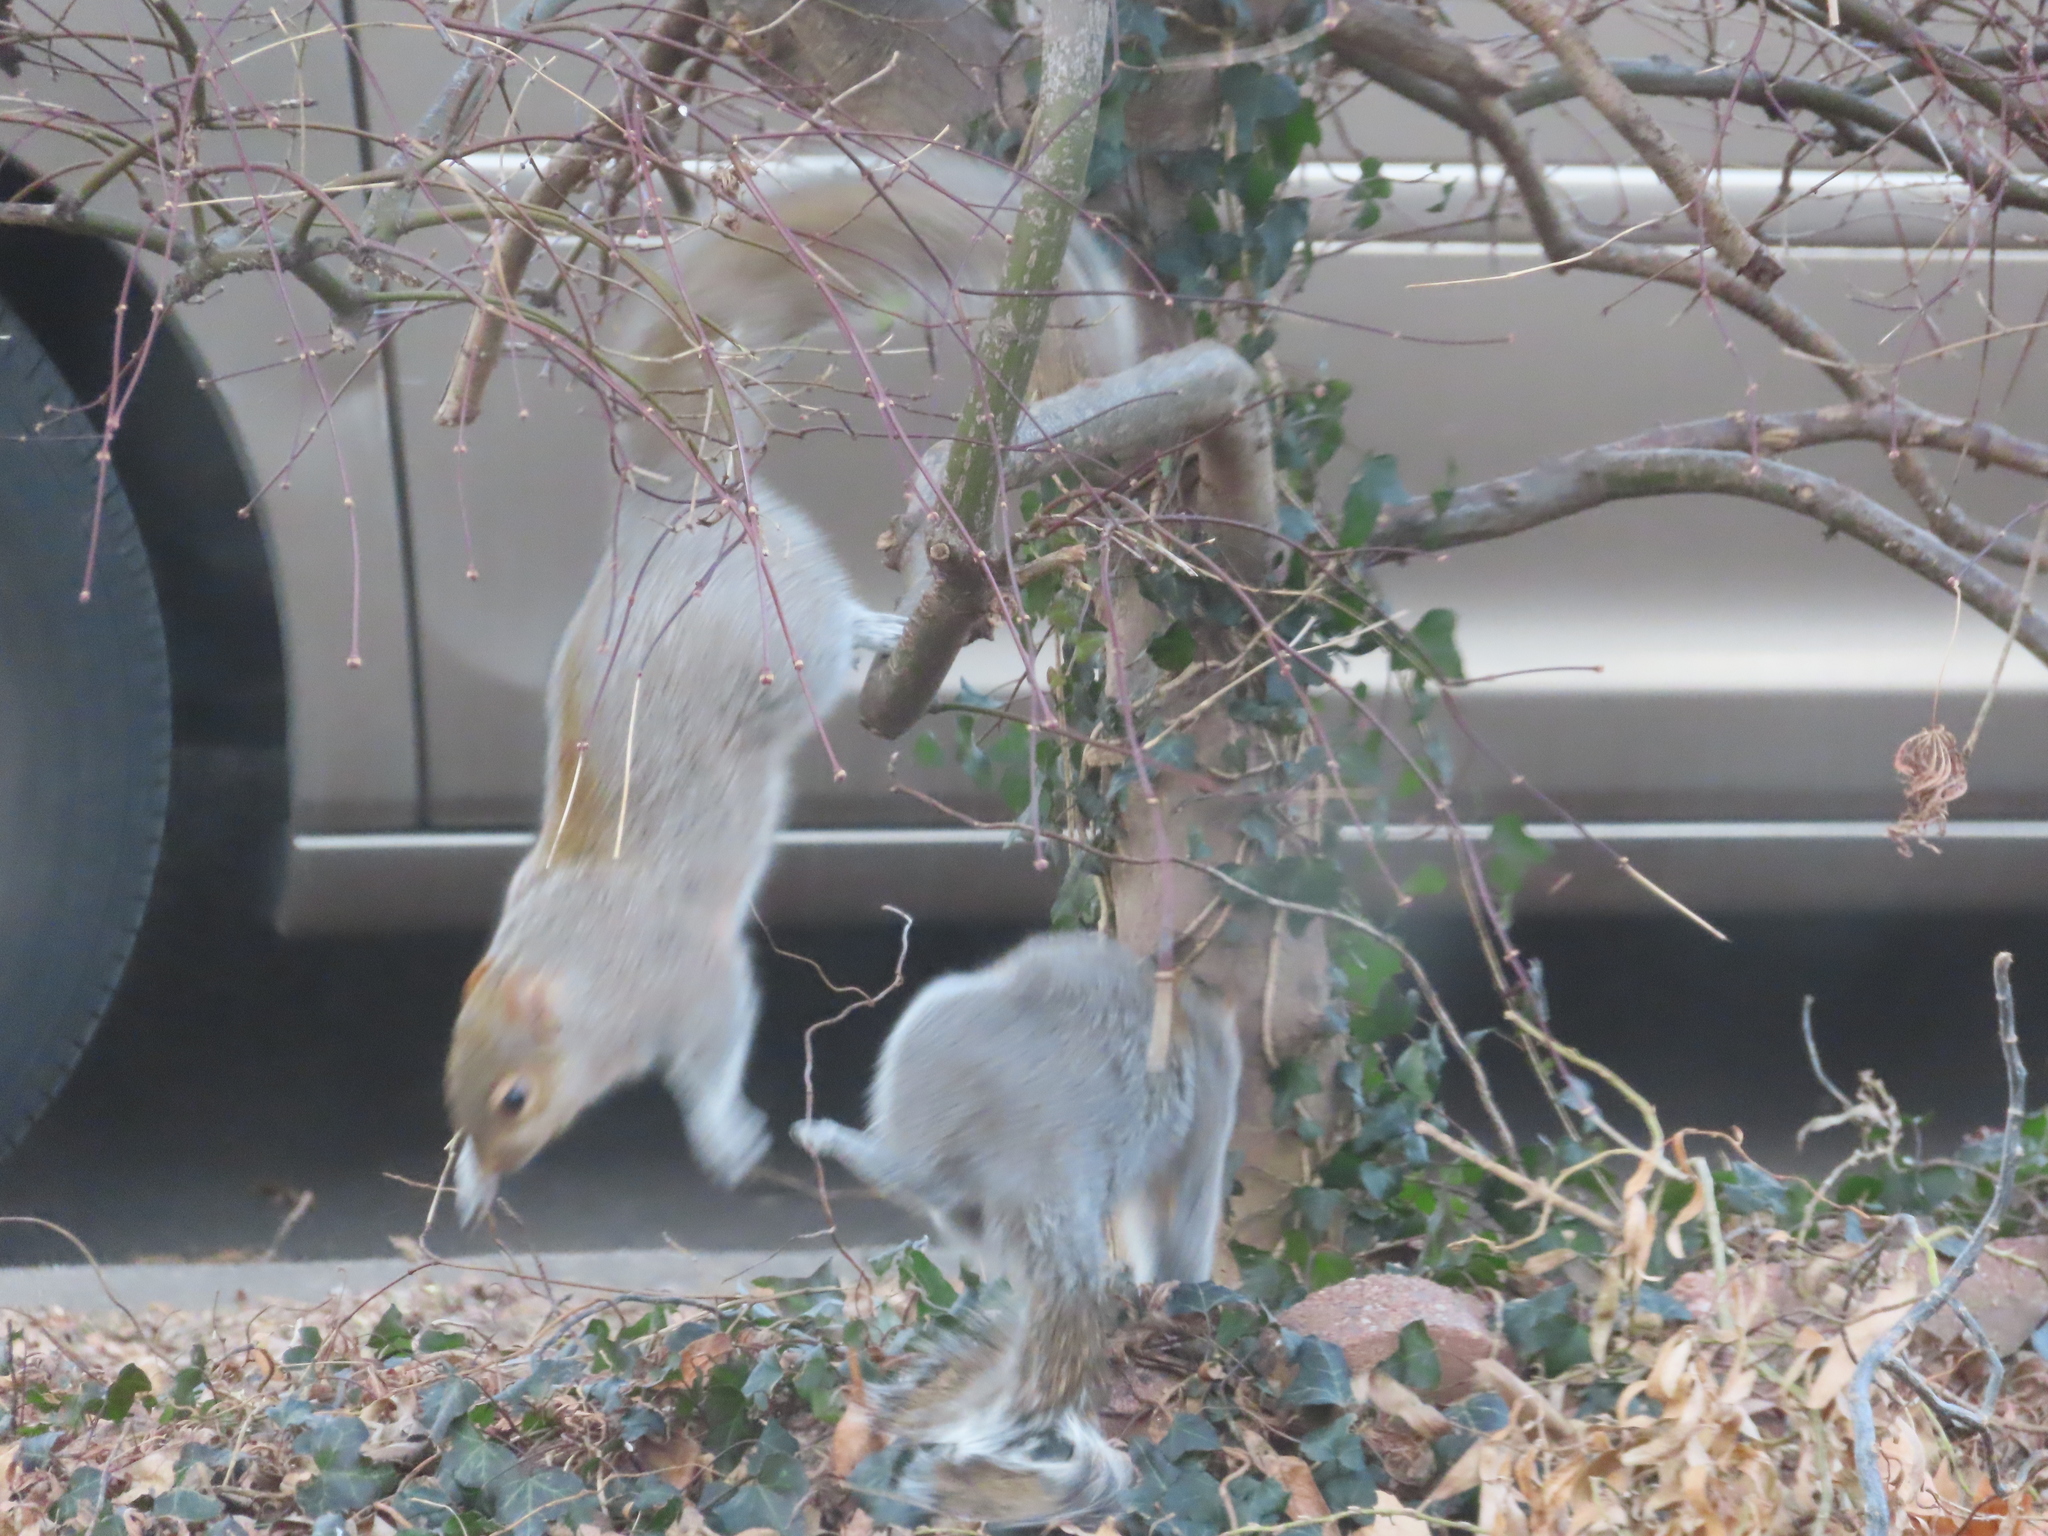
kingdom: Animalia
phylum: Chordata
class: Mammalia
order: Rodentia
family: Sciuridae
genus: Sciurus
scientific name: Sciurus carolinensis
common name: Eastern gray squirrel
